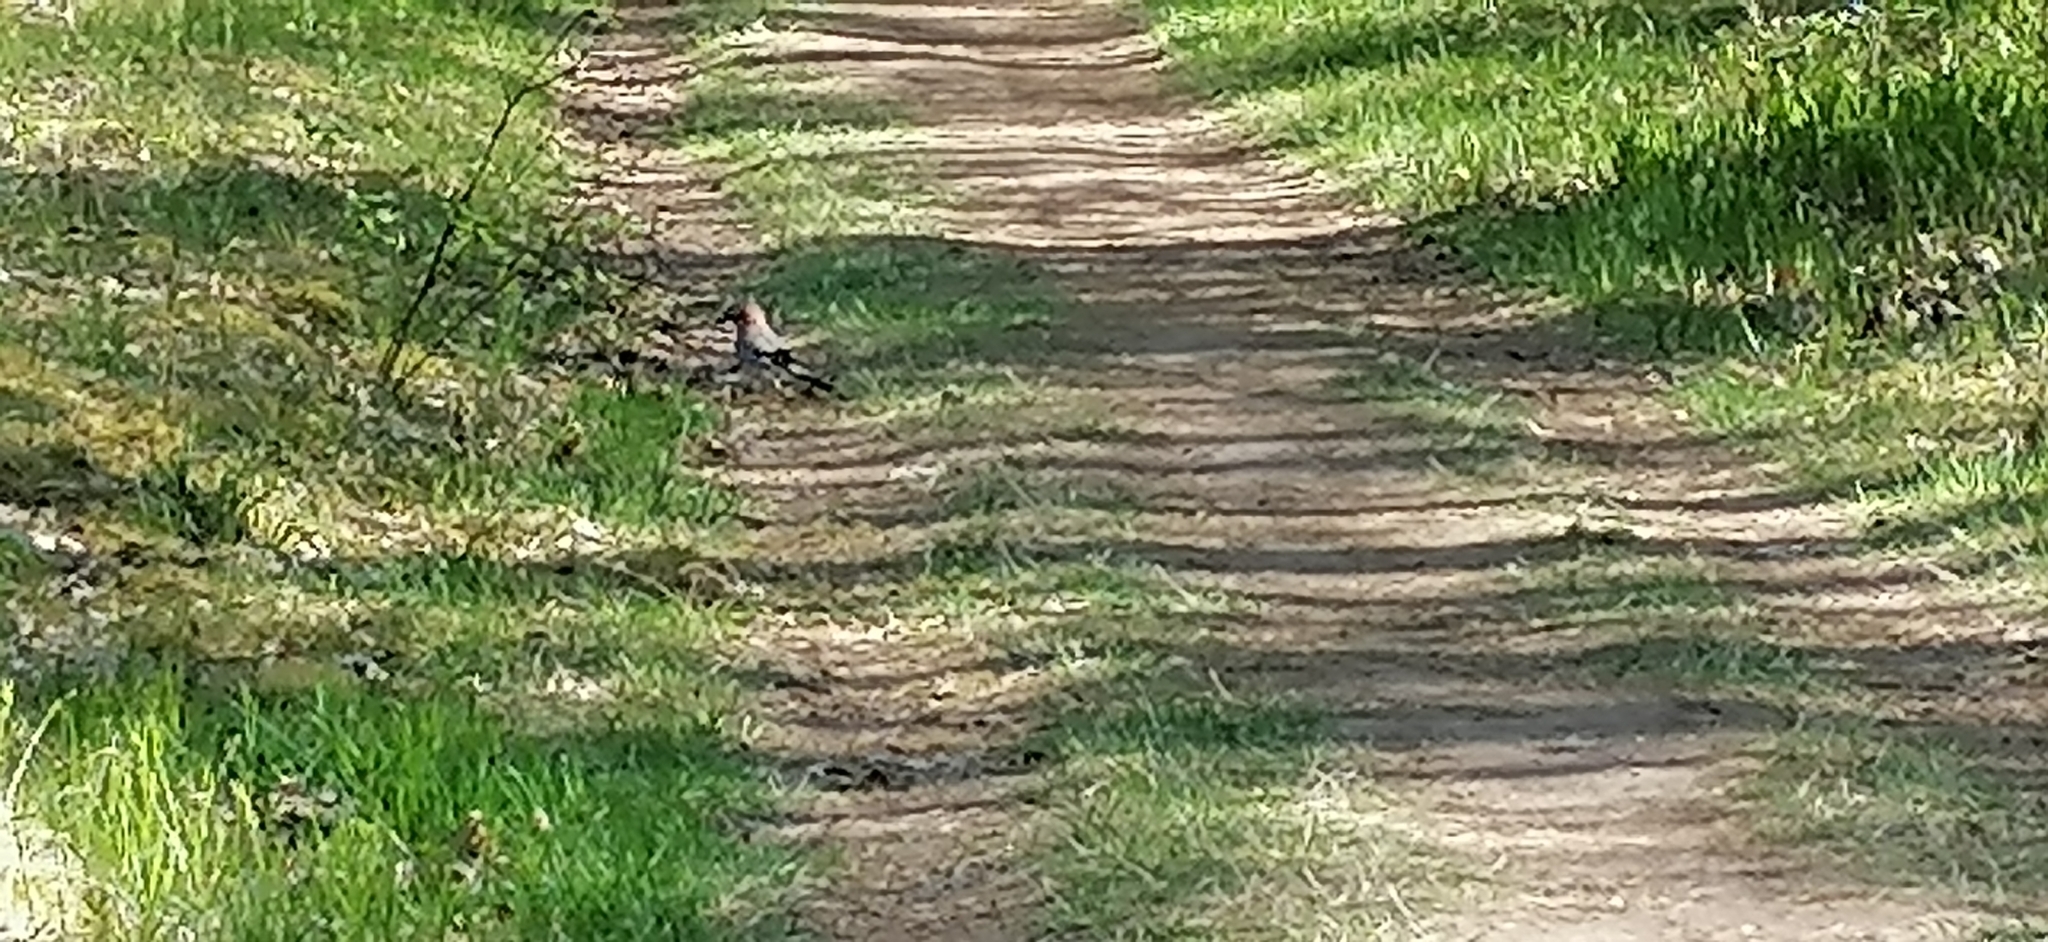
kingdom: Animalia
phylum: Chordata
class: Aves
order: Passeriformes
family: Corvidae
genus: Garrulus
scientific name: Garrulus glandarius
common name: Eurasian jay
